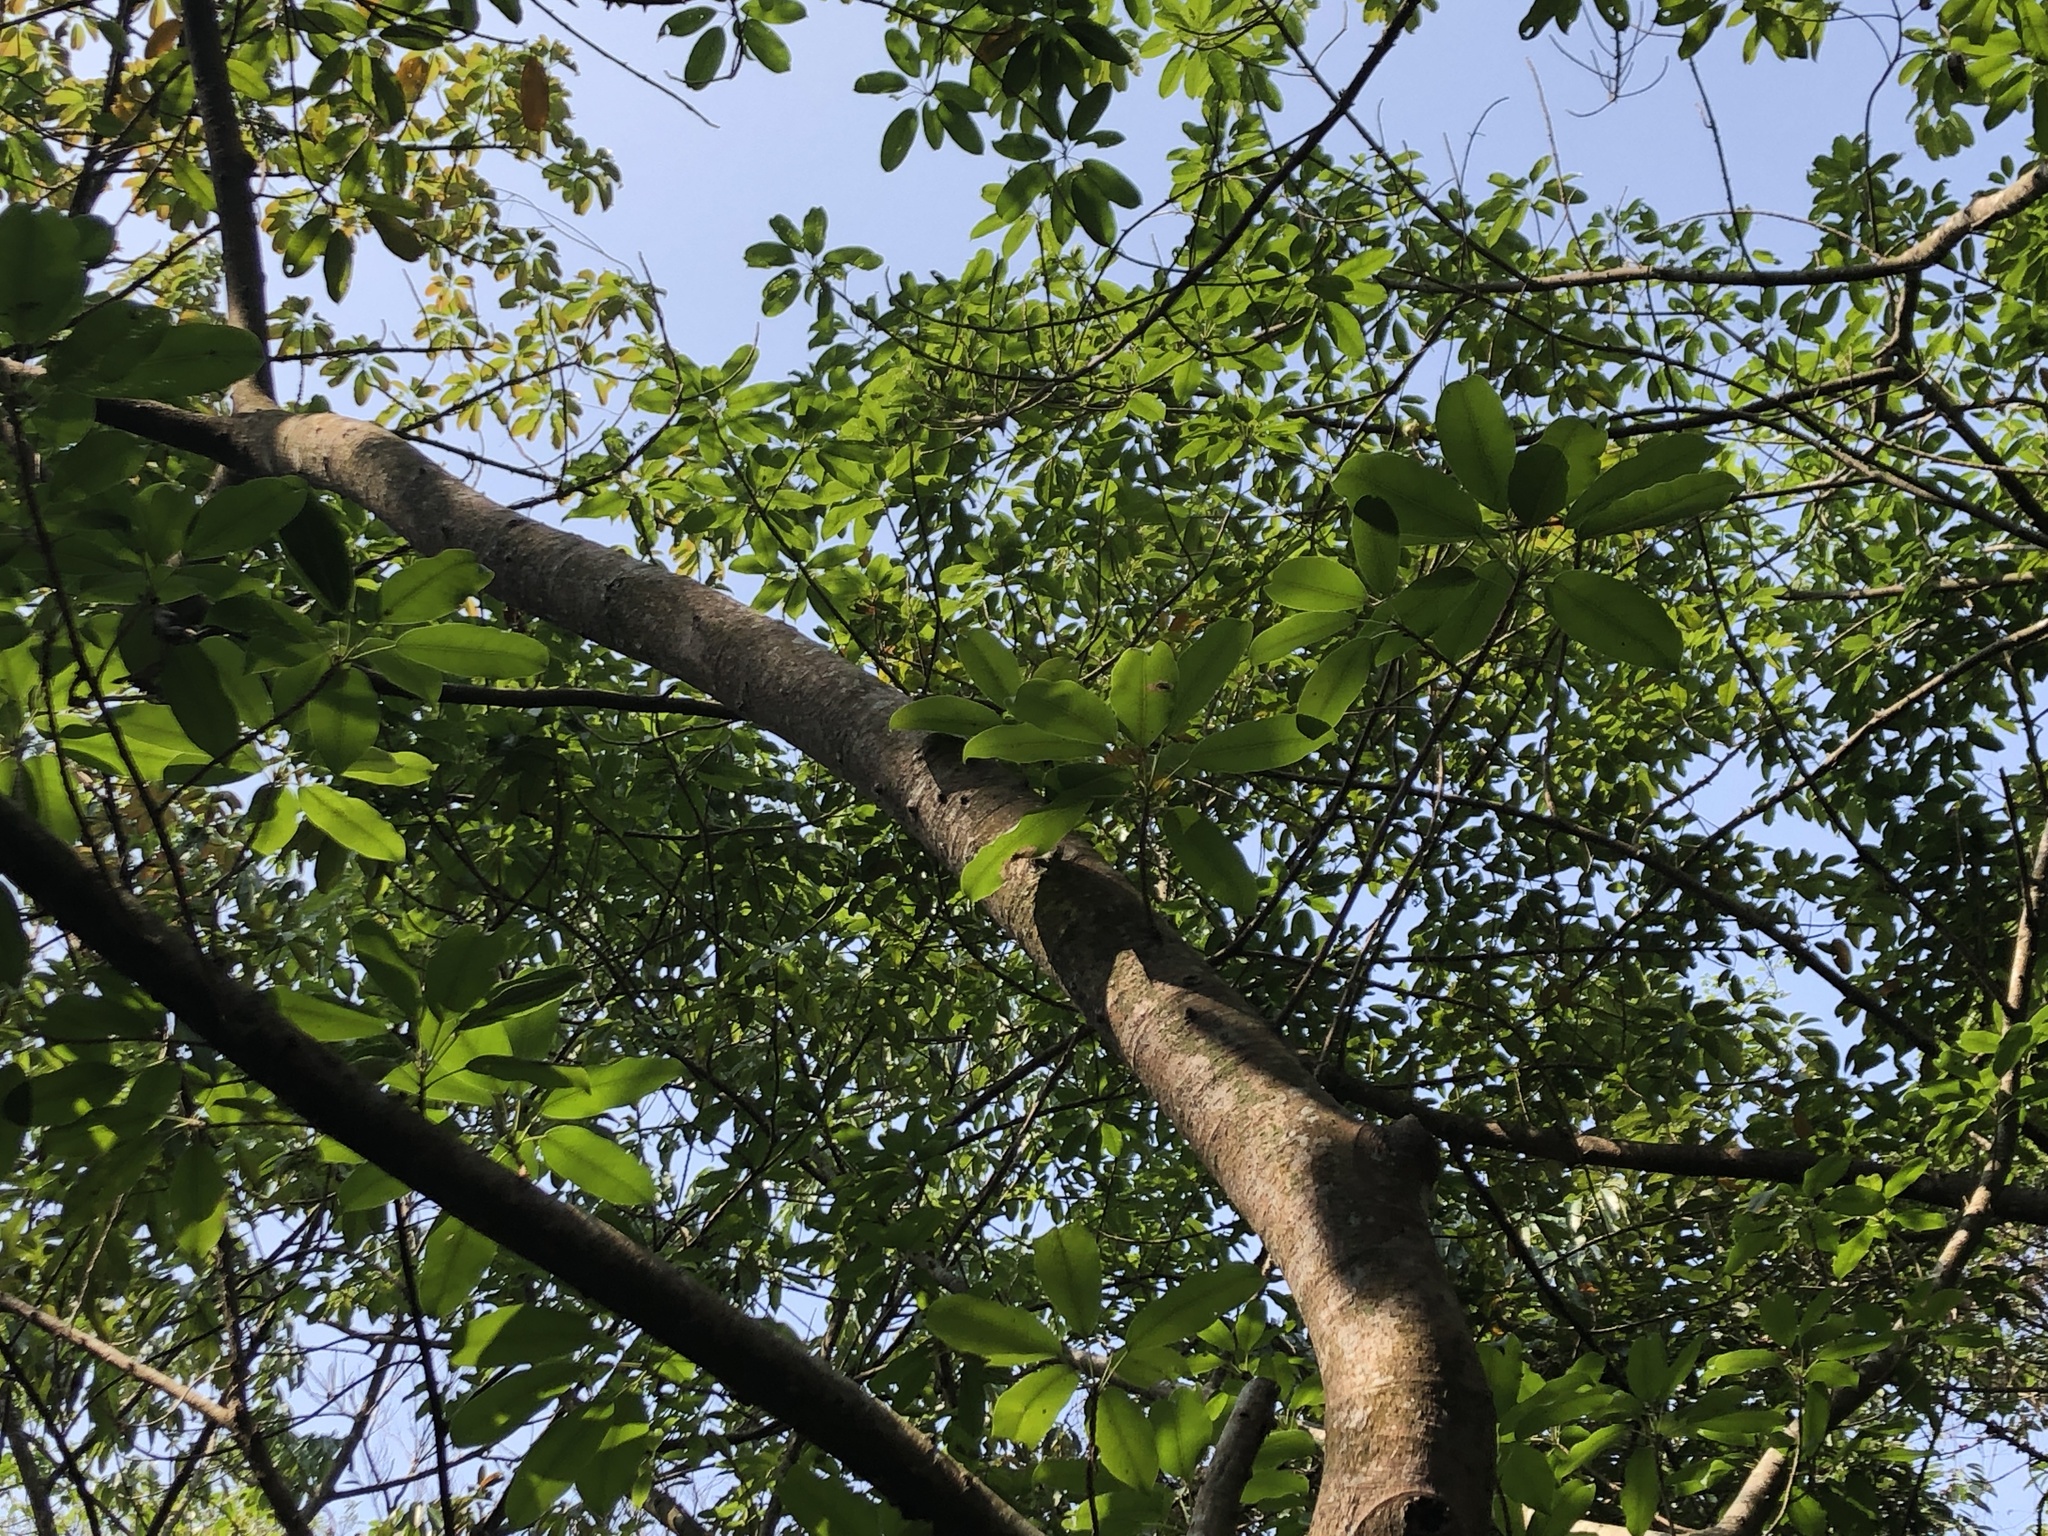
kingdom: Plantae
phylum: Tracheophyta
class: Magnoliopsida
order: Rosales
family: Moraceae
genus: Ficus
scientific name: Ficus subpisocarpa
